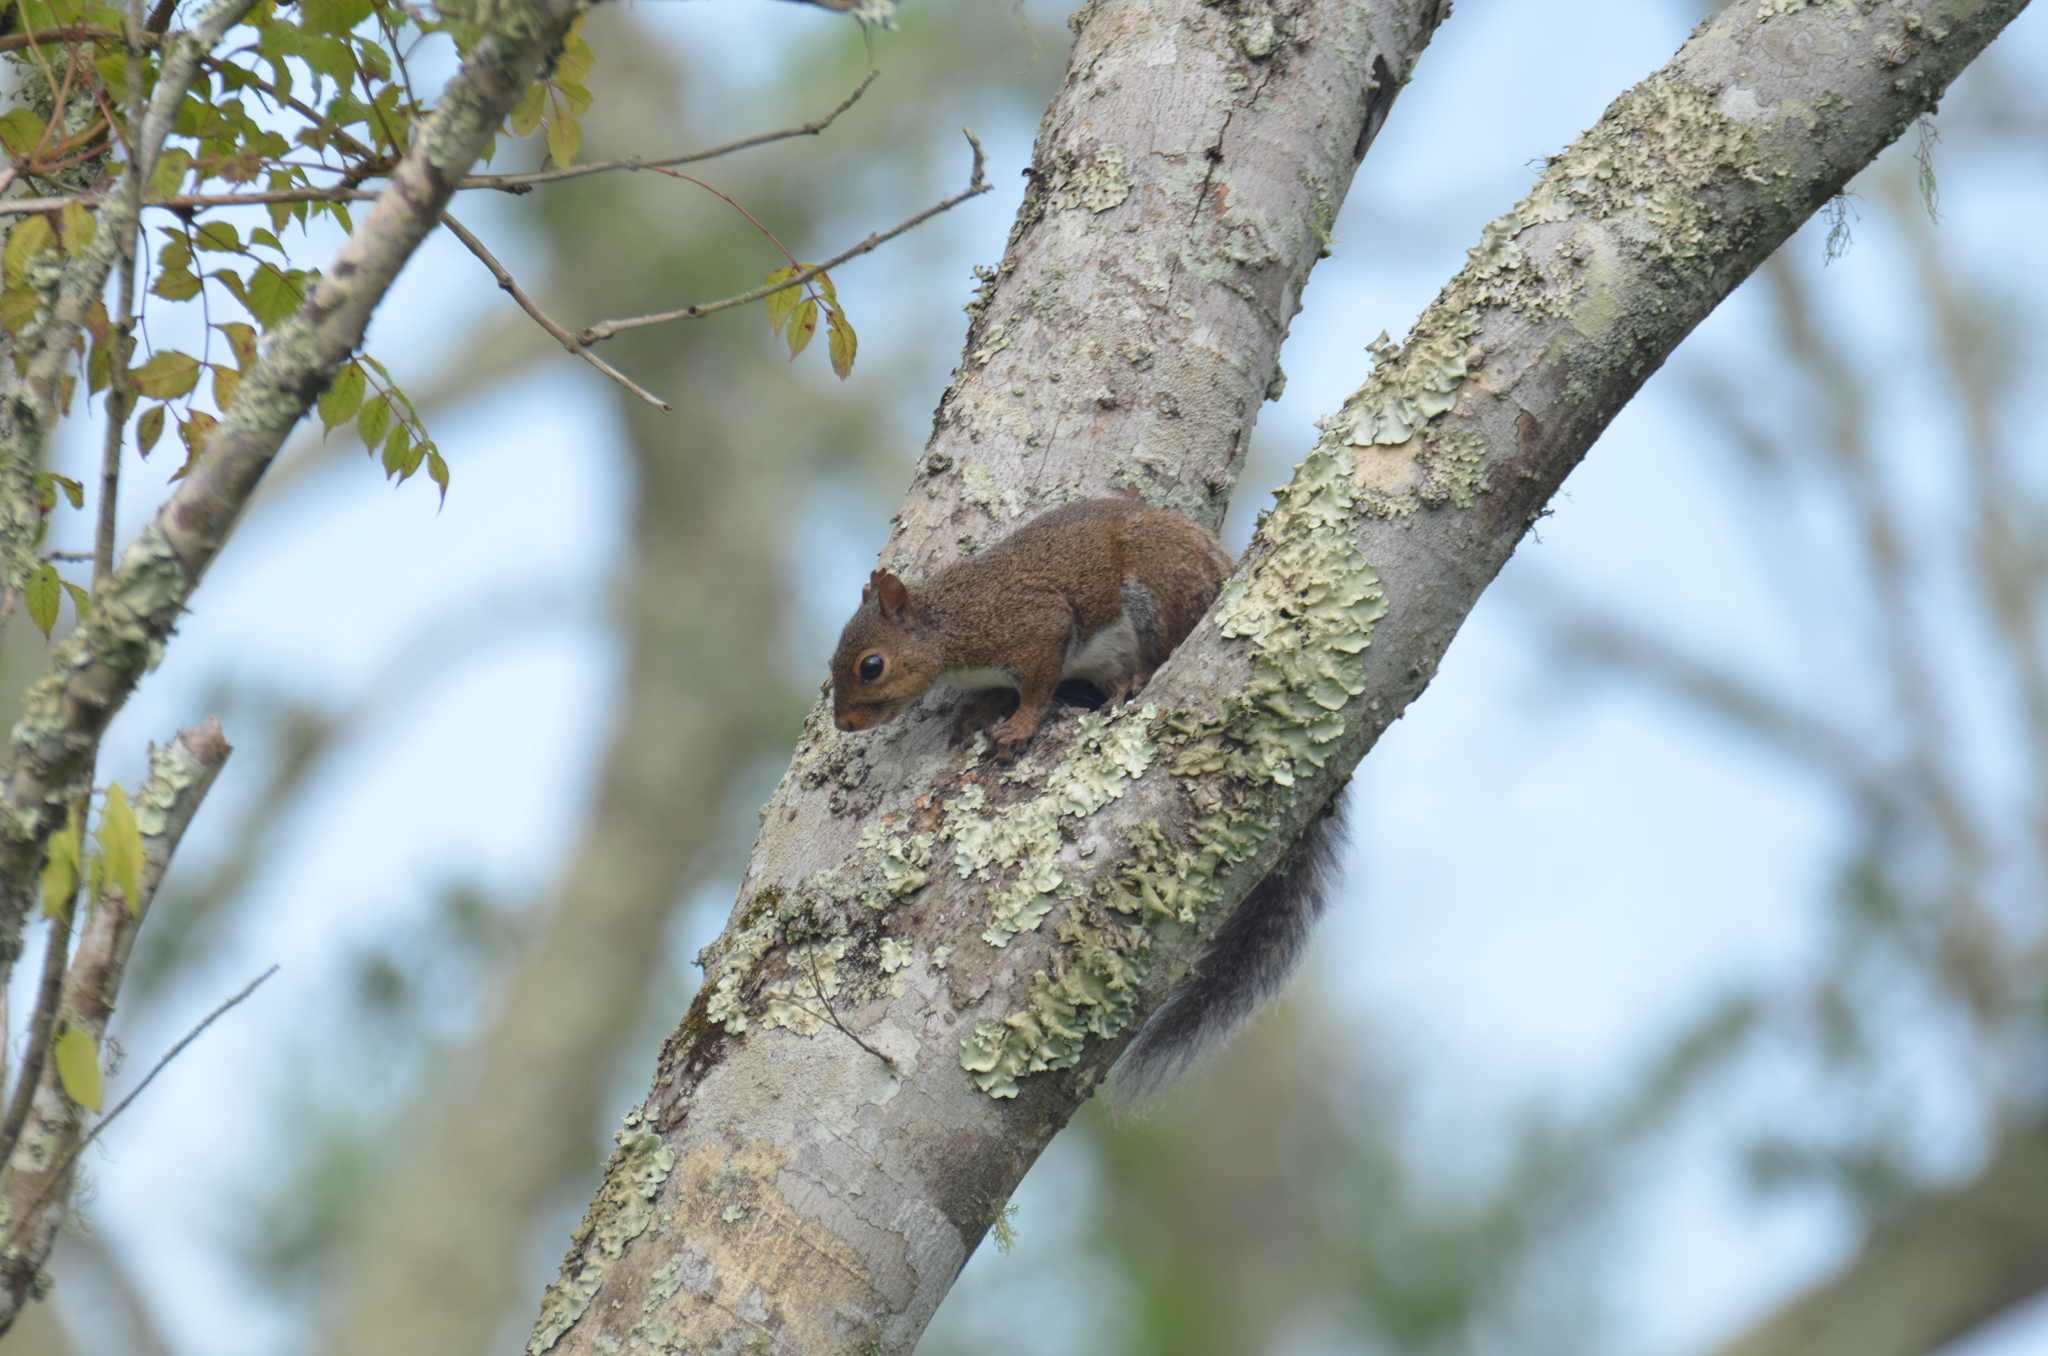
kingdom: Animalia
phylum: Chordata
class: Mammalia
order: Rodentia
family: Sciuridae
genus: Sciurus
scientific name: Sciurus carolinensis
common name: Eastern gray squirrel
